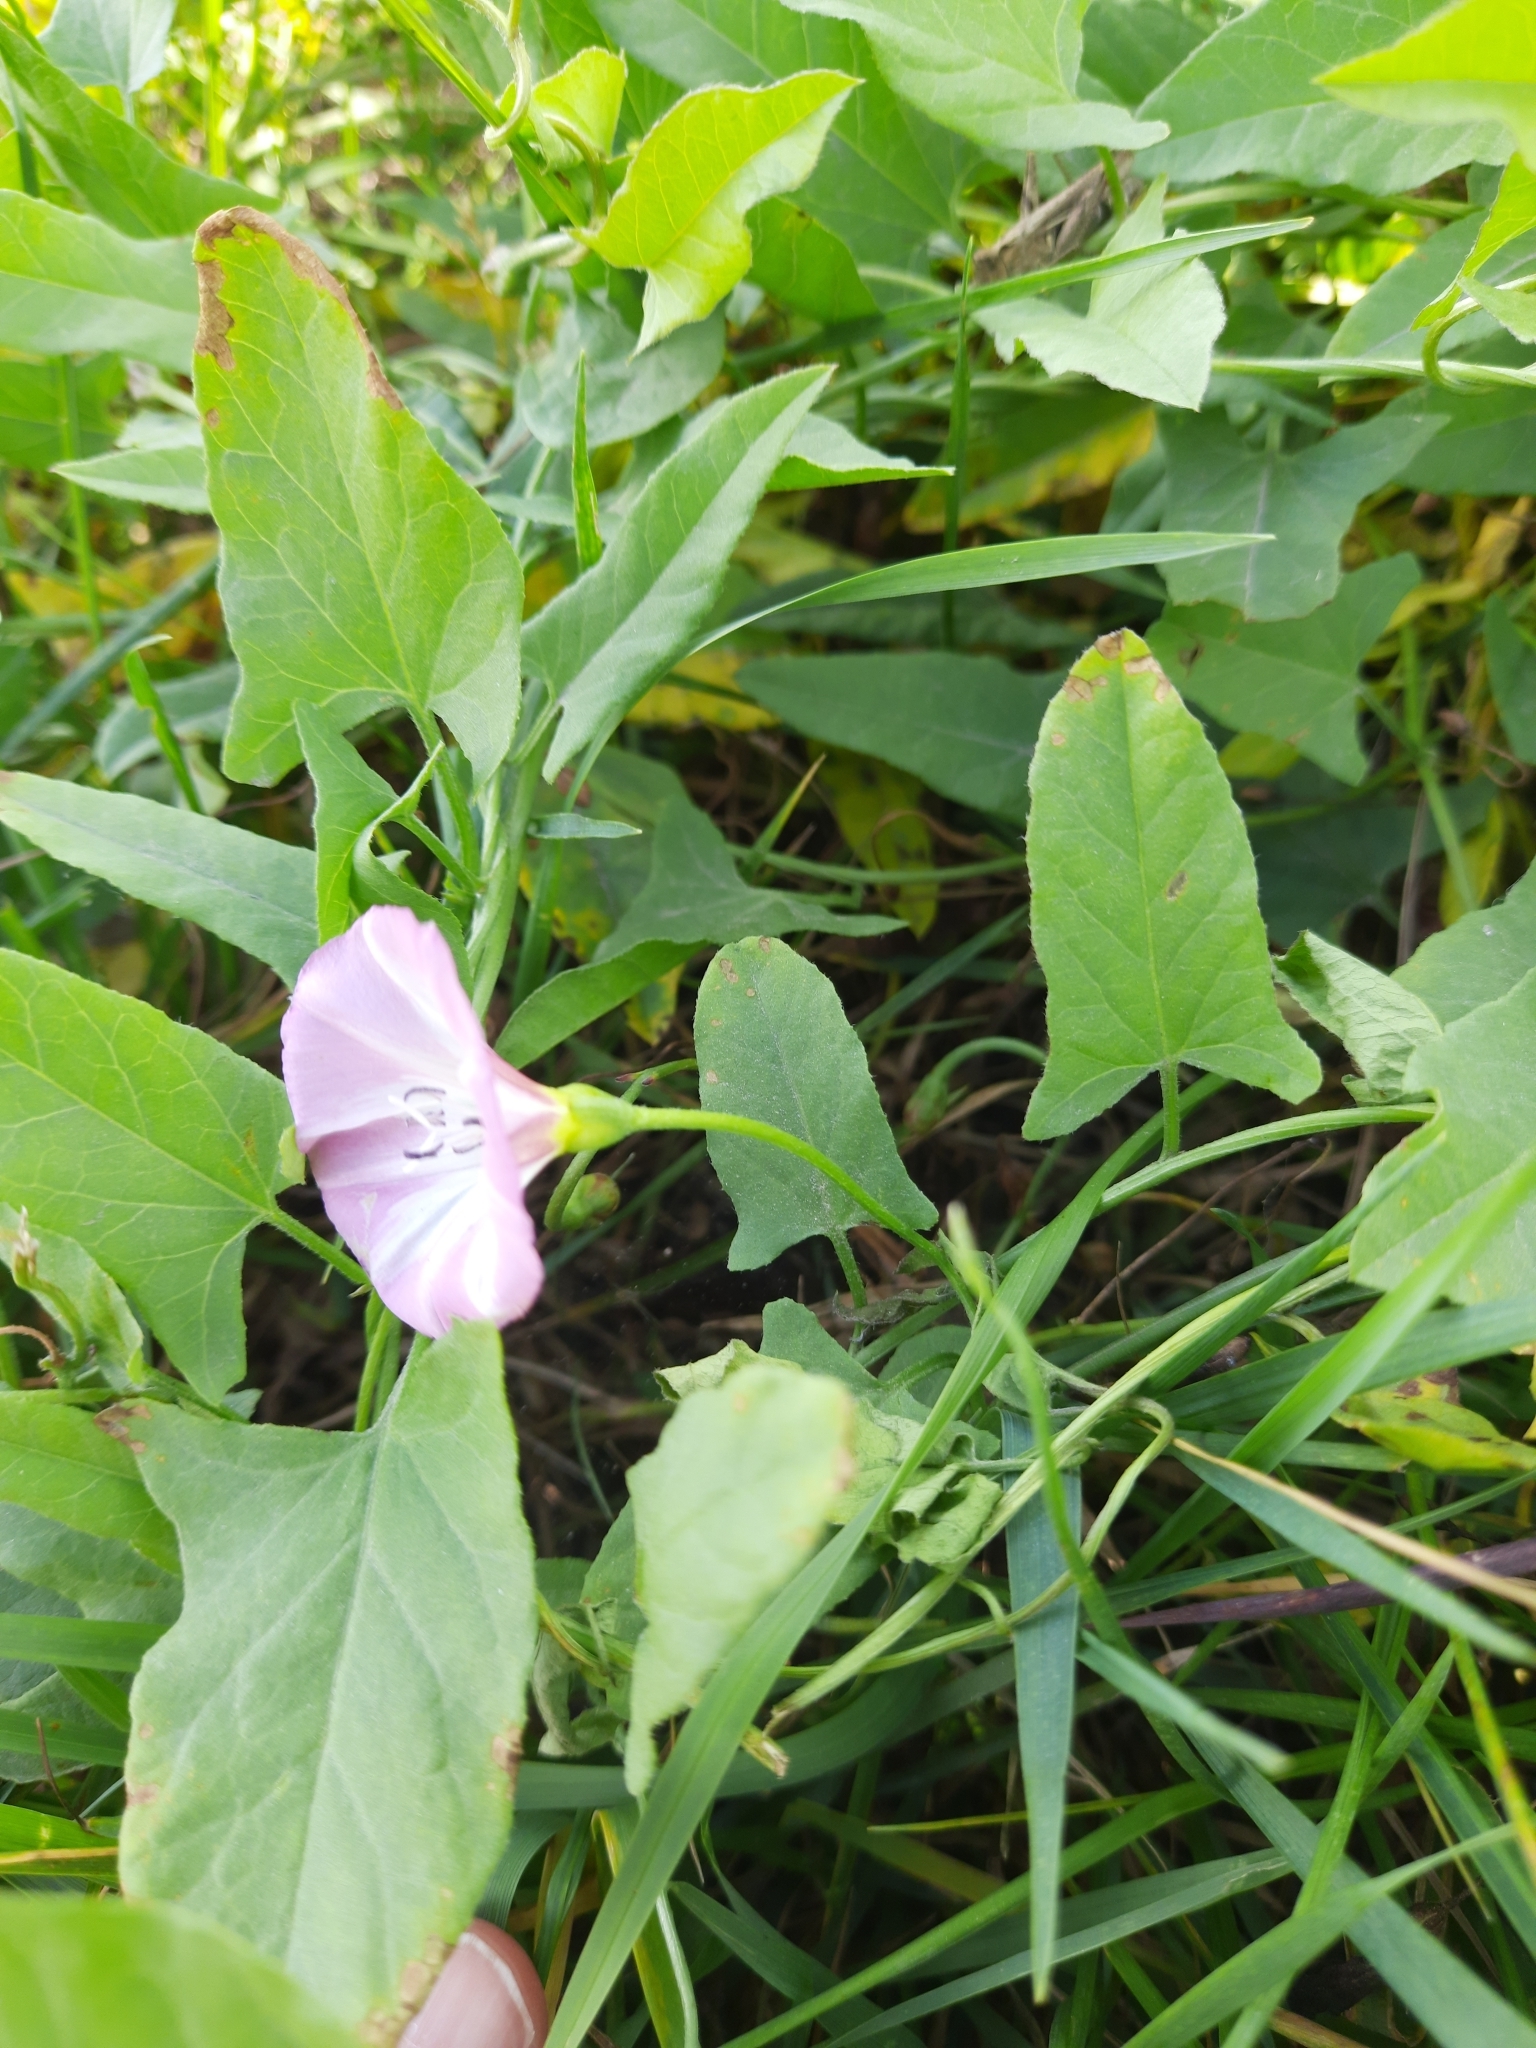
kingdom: Plantae
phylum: Tracheophyta
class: Magnoliopsida
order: Solanales
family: Convolvulaceae
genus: Convolvulus
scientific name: Convolvulus arvensis
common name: Field bindweed
